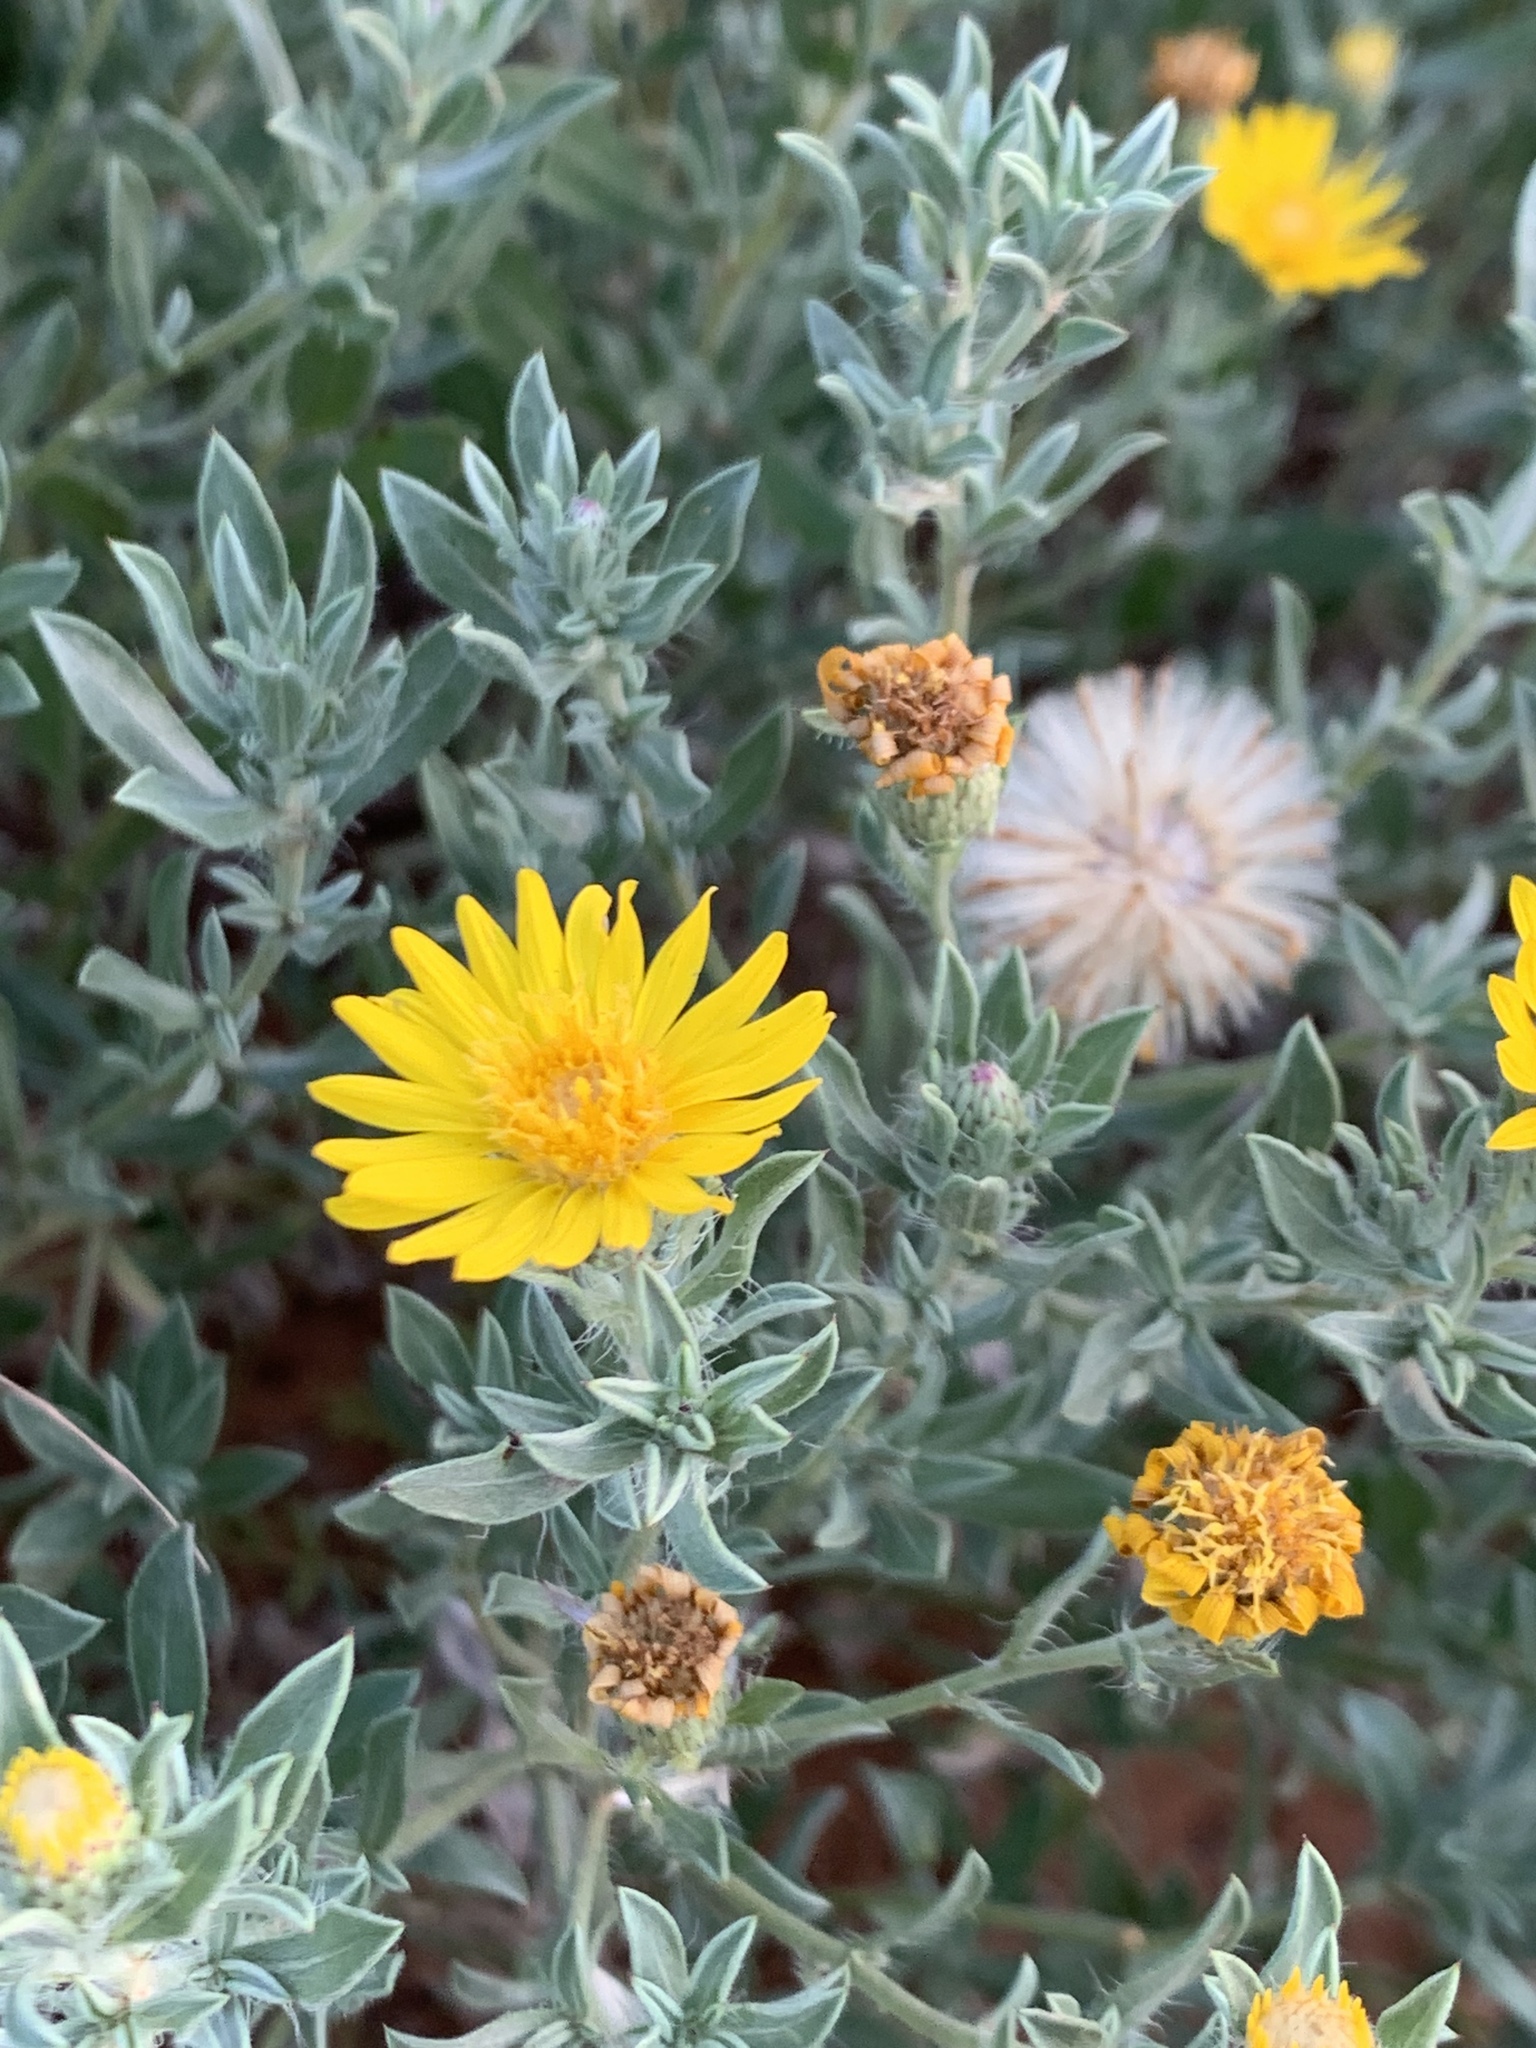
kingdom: Plantae
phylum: Tracheophyta
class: Magnoliopsida
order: Asterales
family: Asteraceae
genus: Heterotheca
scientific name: Heterotheca canescens
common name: Hoary golden-aster
